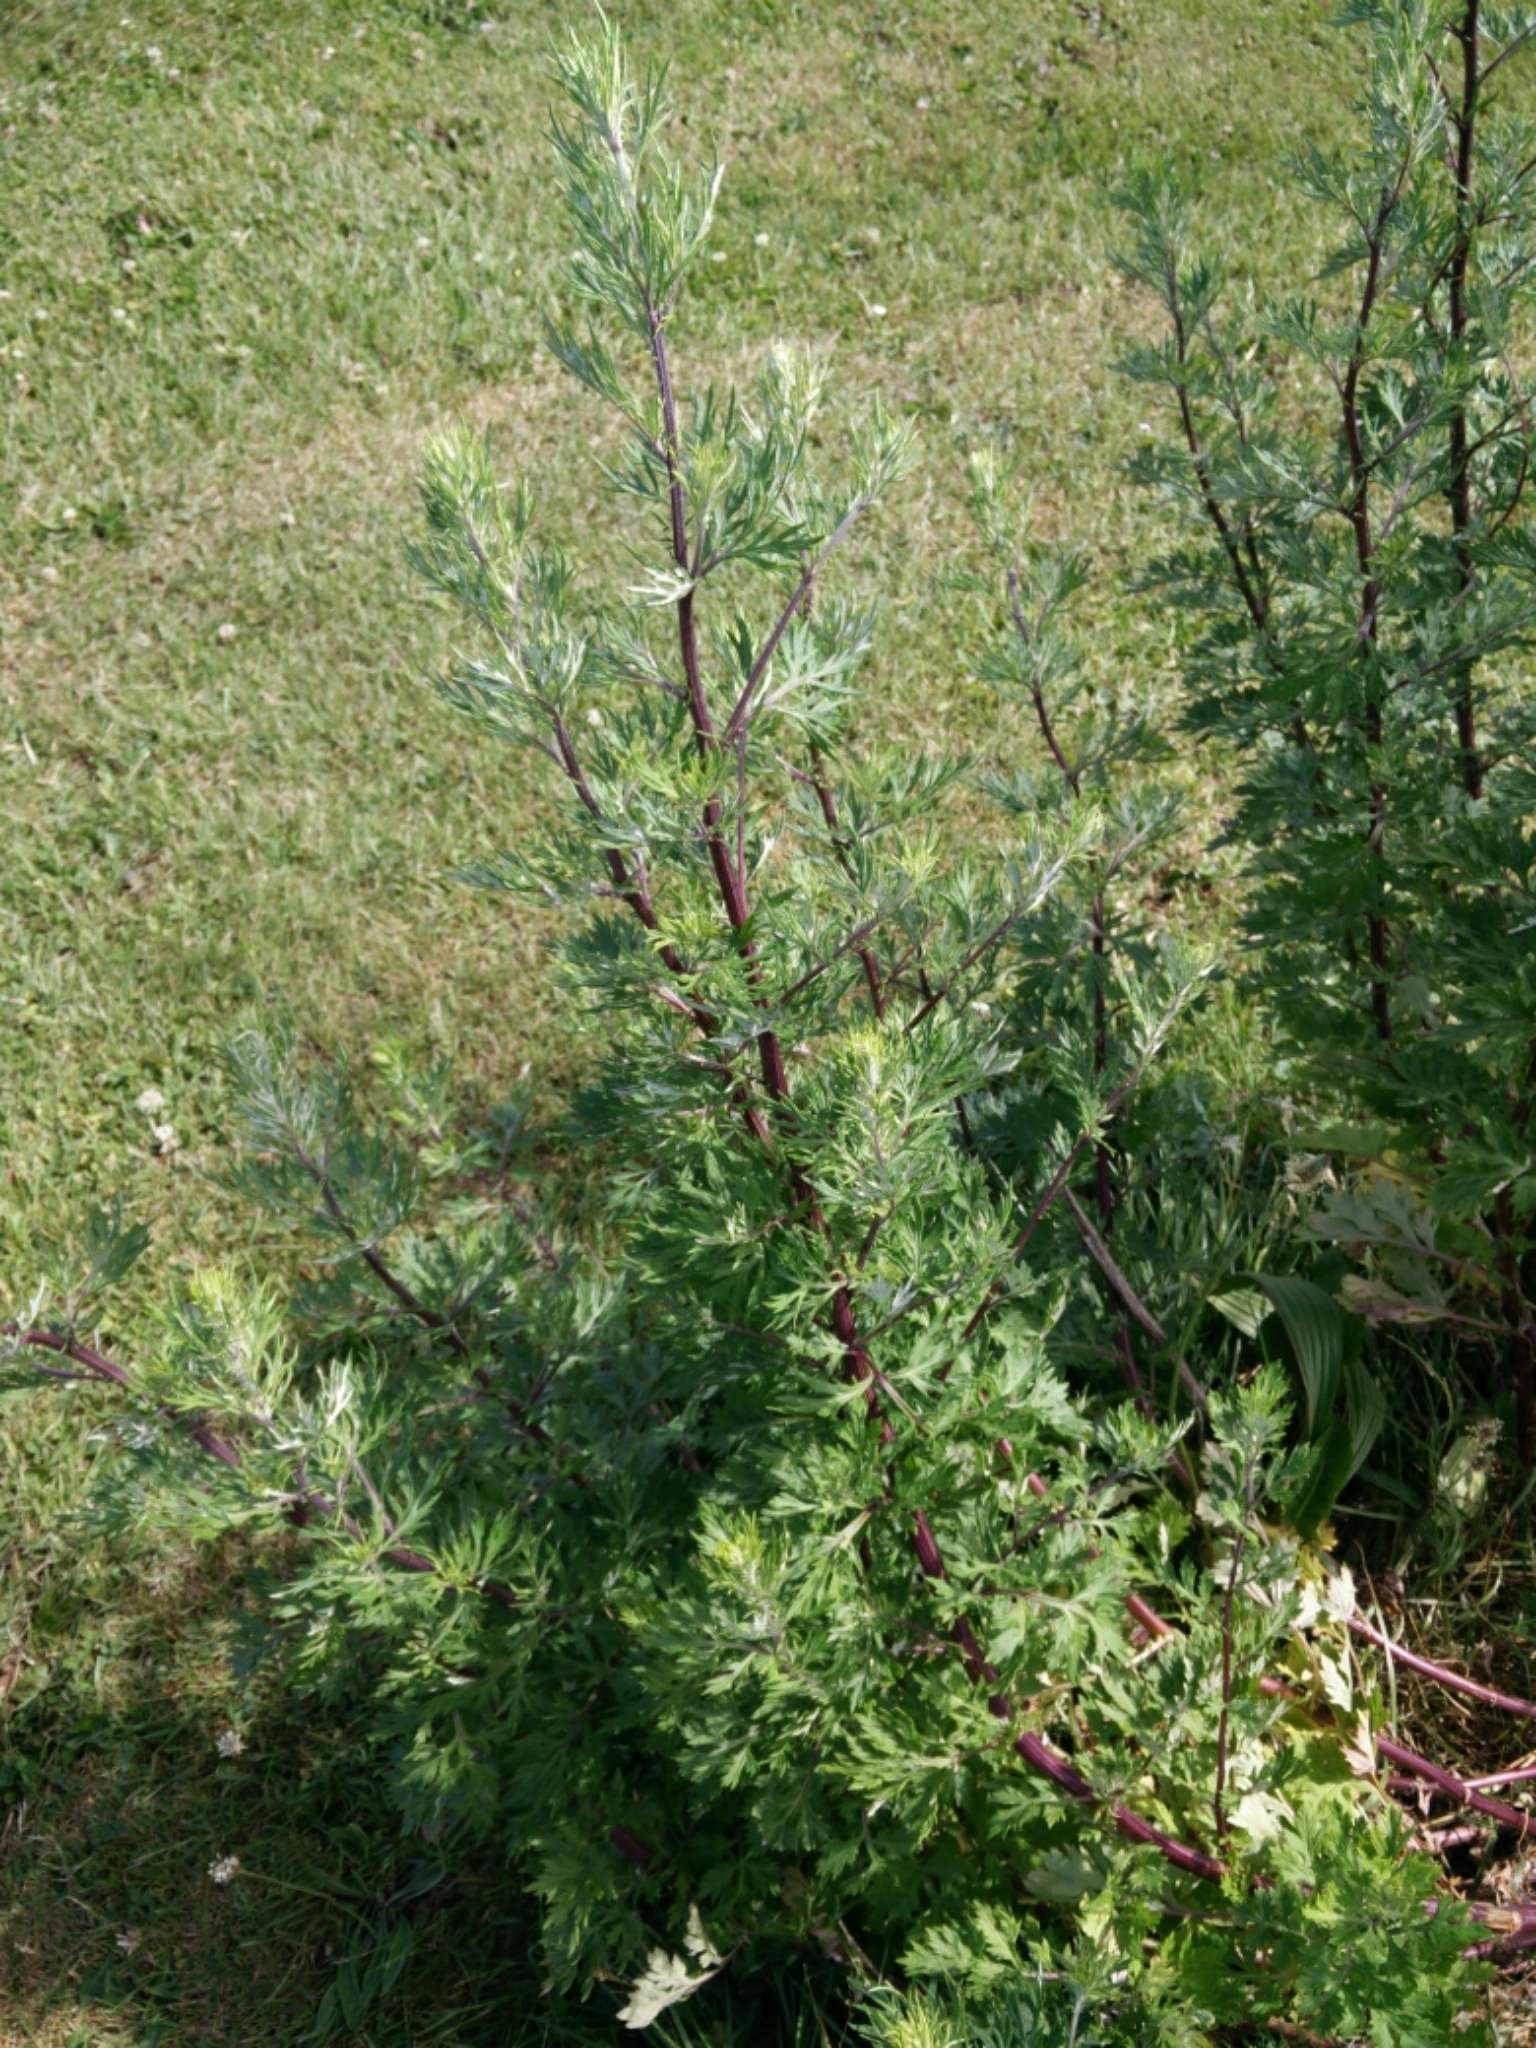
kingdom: Plantae
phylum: Tracheophyta
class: Magnoliopsida
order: Asterales
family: Asteraceae
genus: Artemisia
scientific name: Artemisia vulgaris
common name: Mugwort
